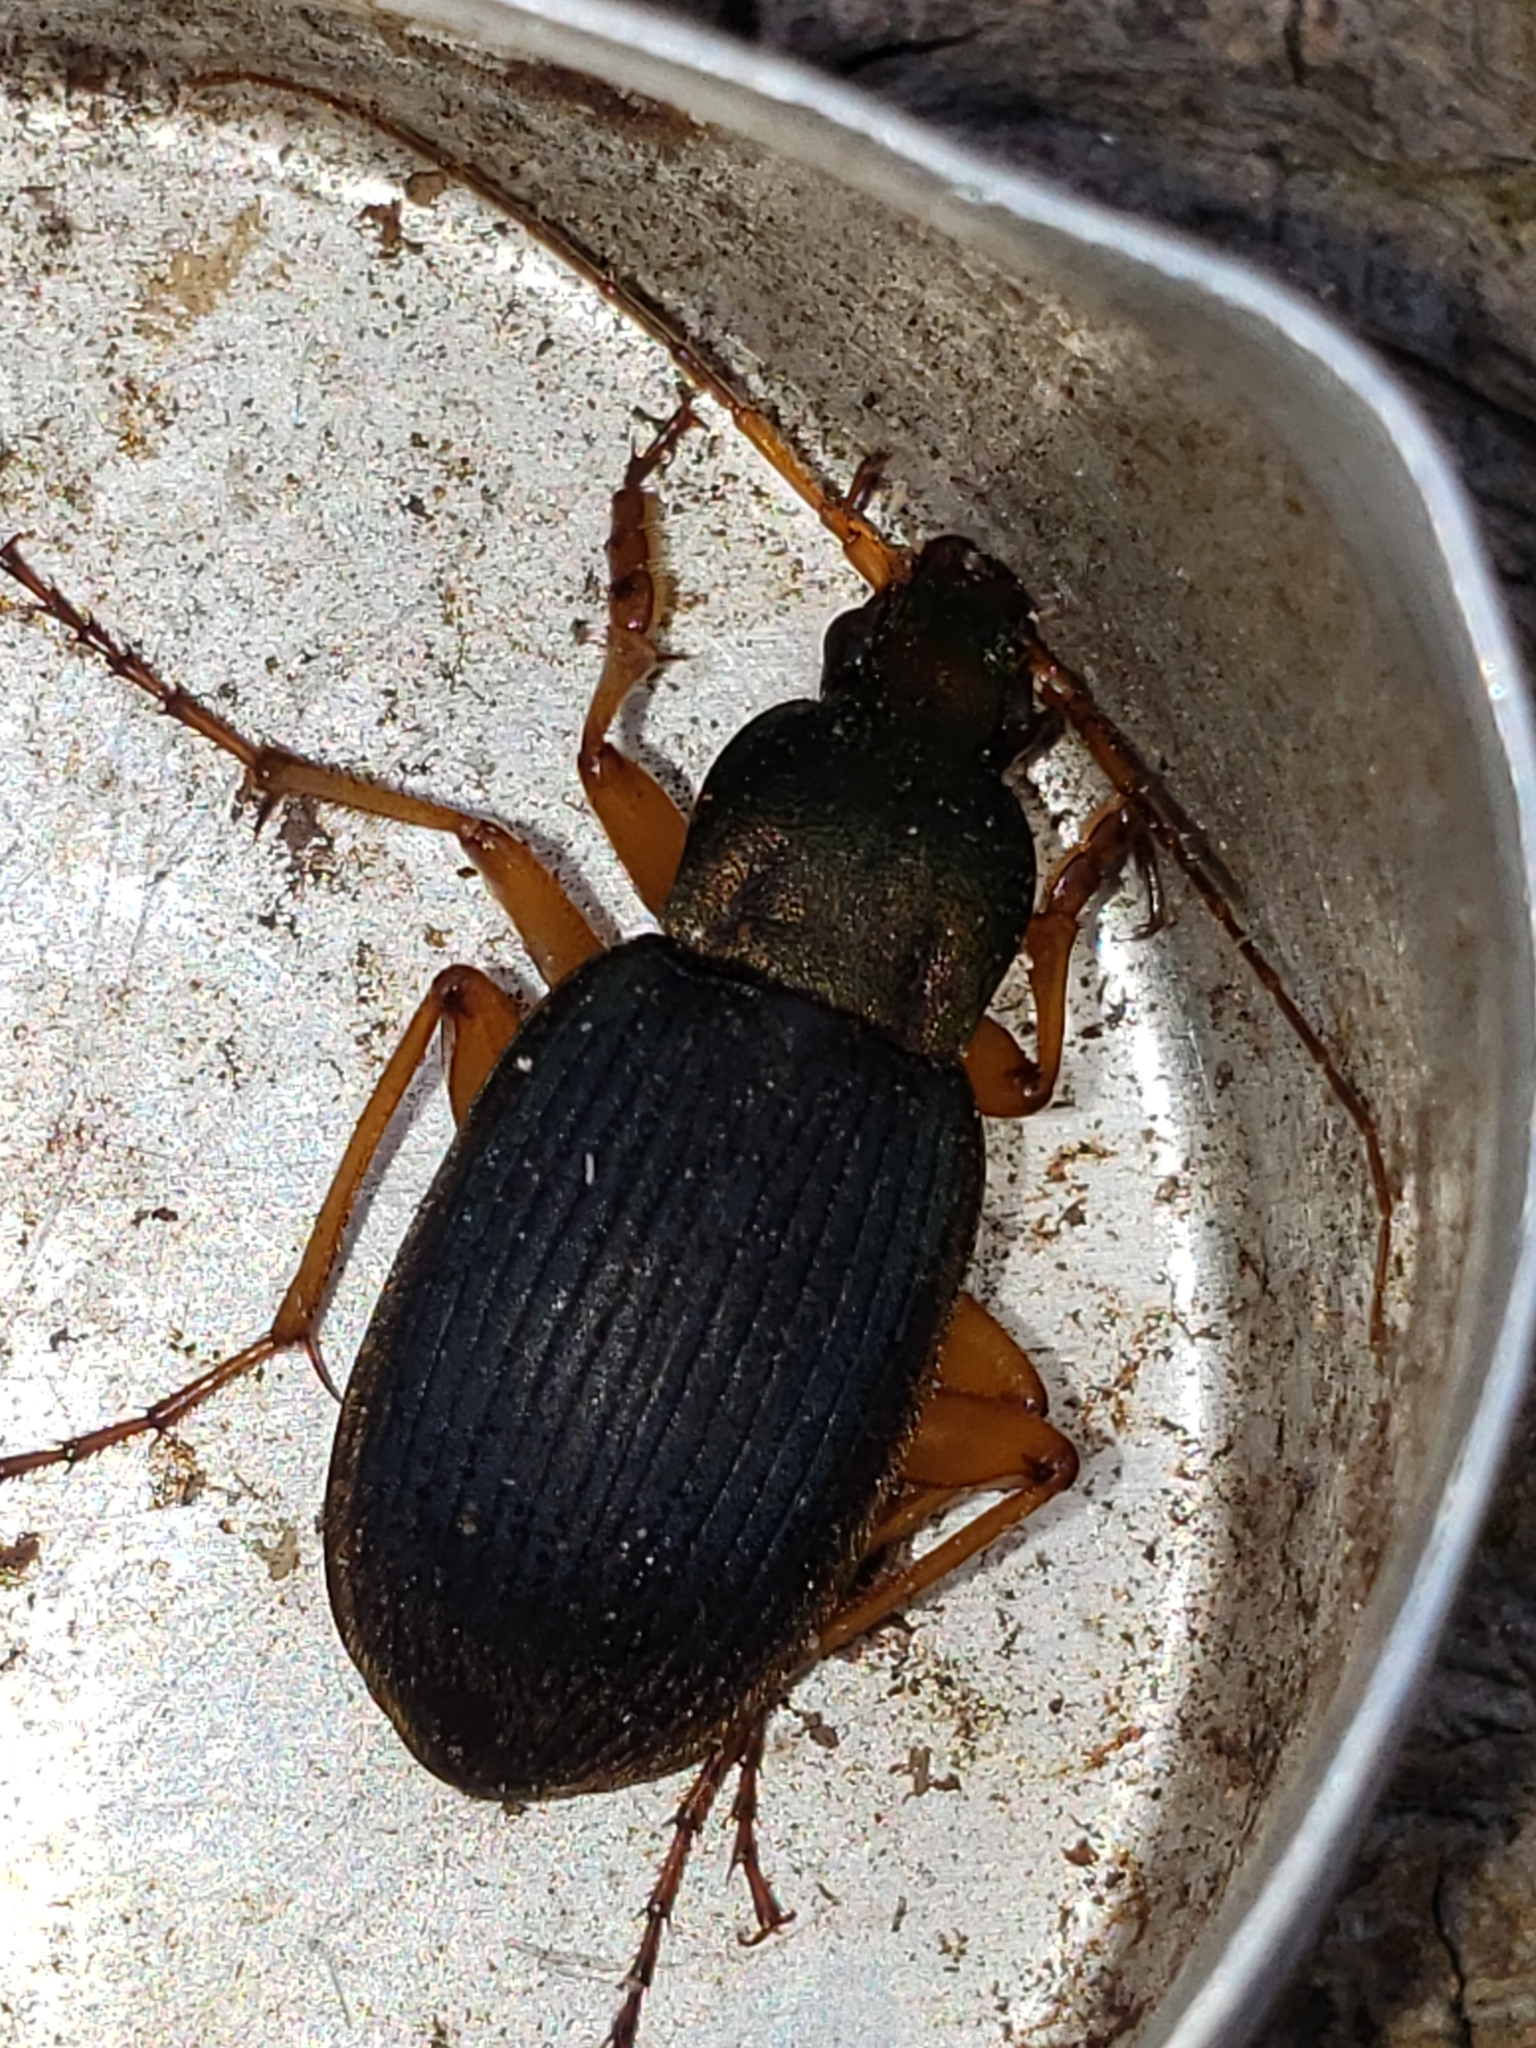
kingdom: Animalia
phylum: Arthropoda
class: Insecta
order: Coleoptera
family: Carabidae
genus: Chlaenius
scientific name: Chlaenius aestivus
